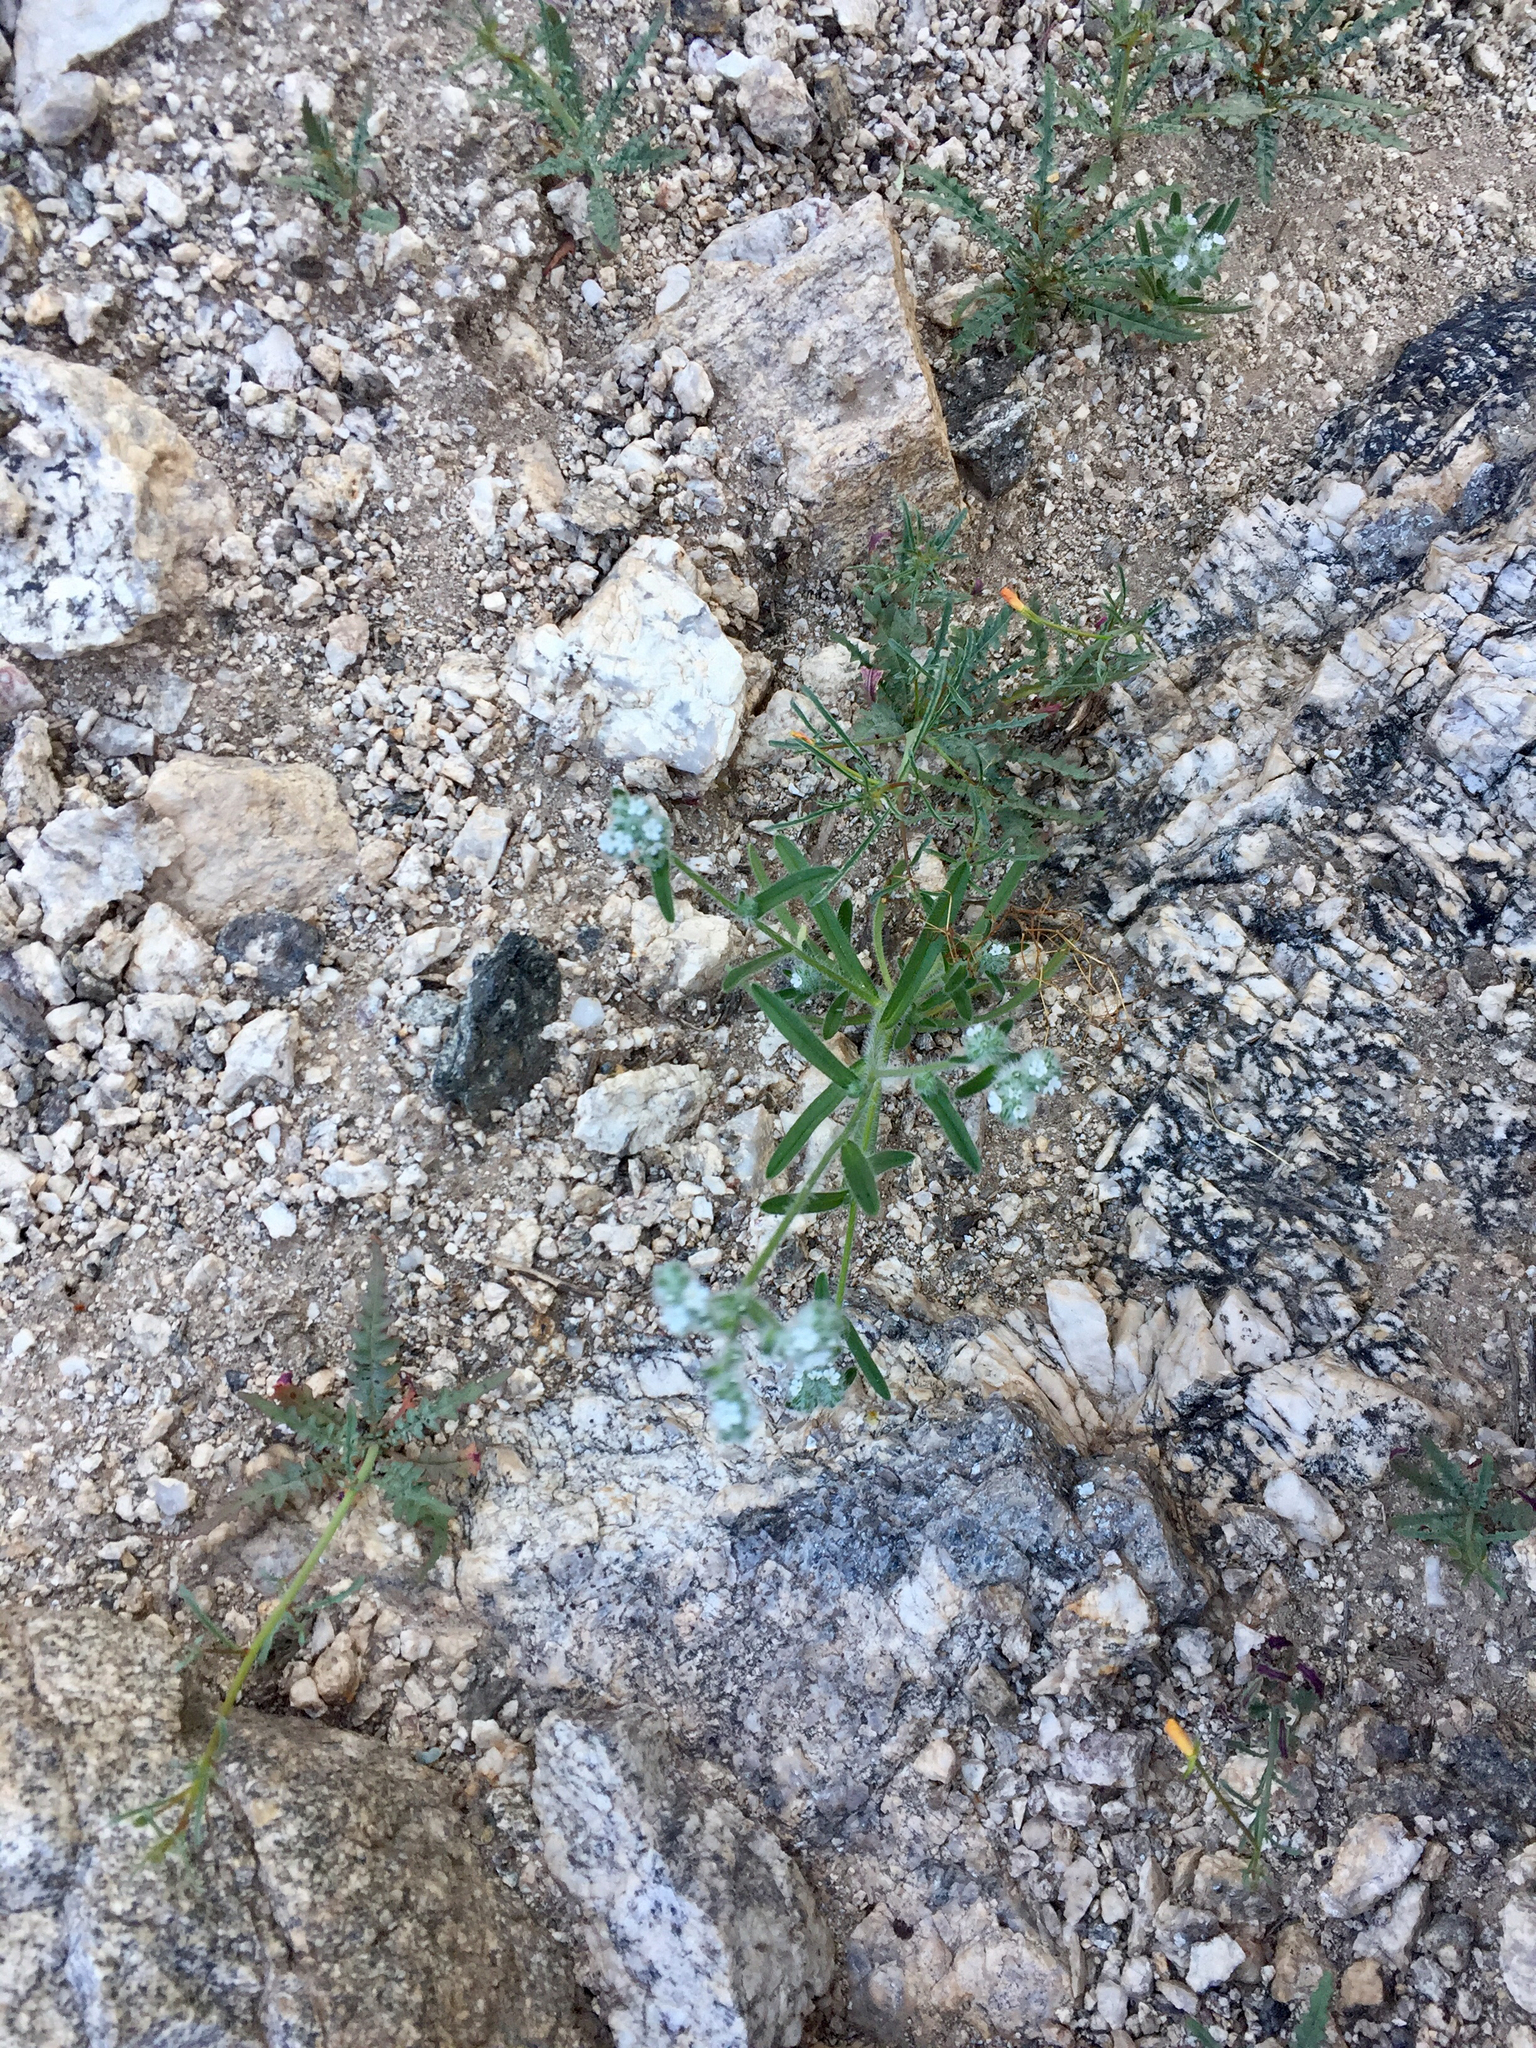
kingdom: Plantae
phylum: Tracheophyta
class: Magnoliopsida
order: Boraginales
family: Boraginaceae
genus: Johnstonella
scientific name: Johnstonella angustifolia
